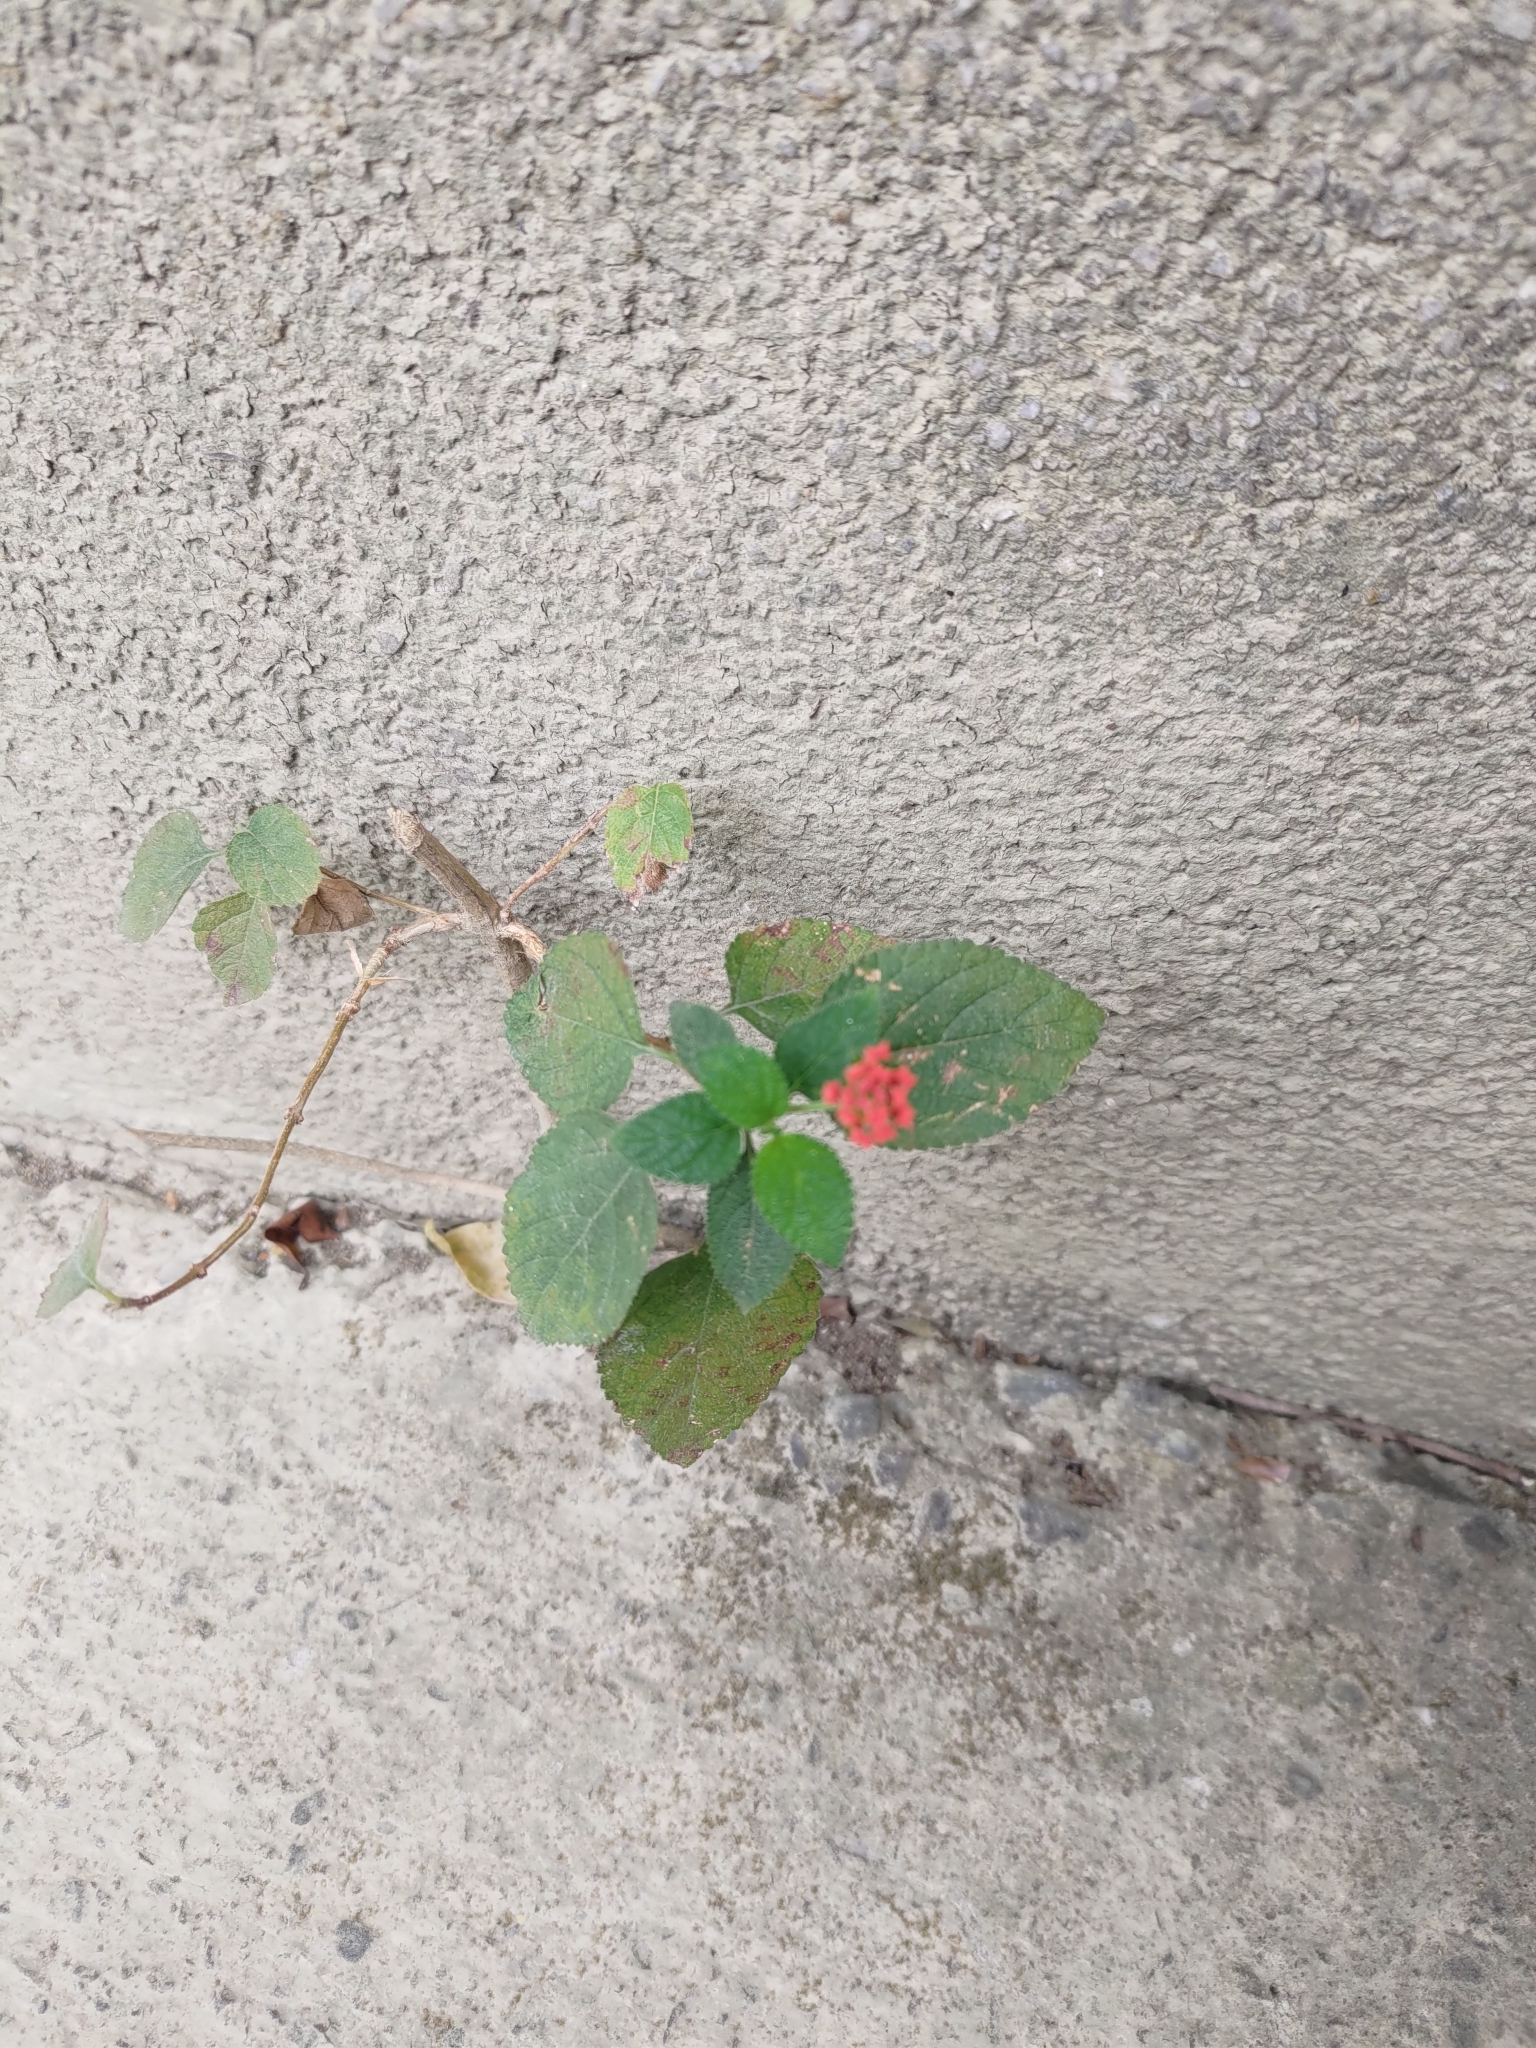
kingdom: Plantae
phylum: Tracheophyta
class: Magnoliopsida
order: Lamiales
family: Verbenaceae
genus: Lantana
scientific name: Lantana camara
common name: Lantana
